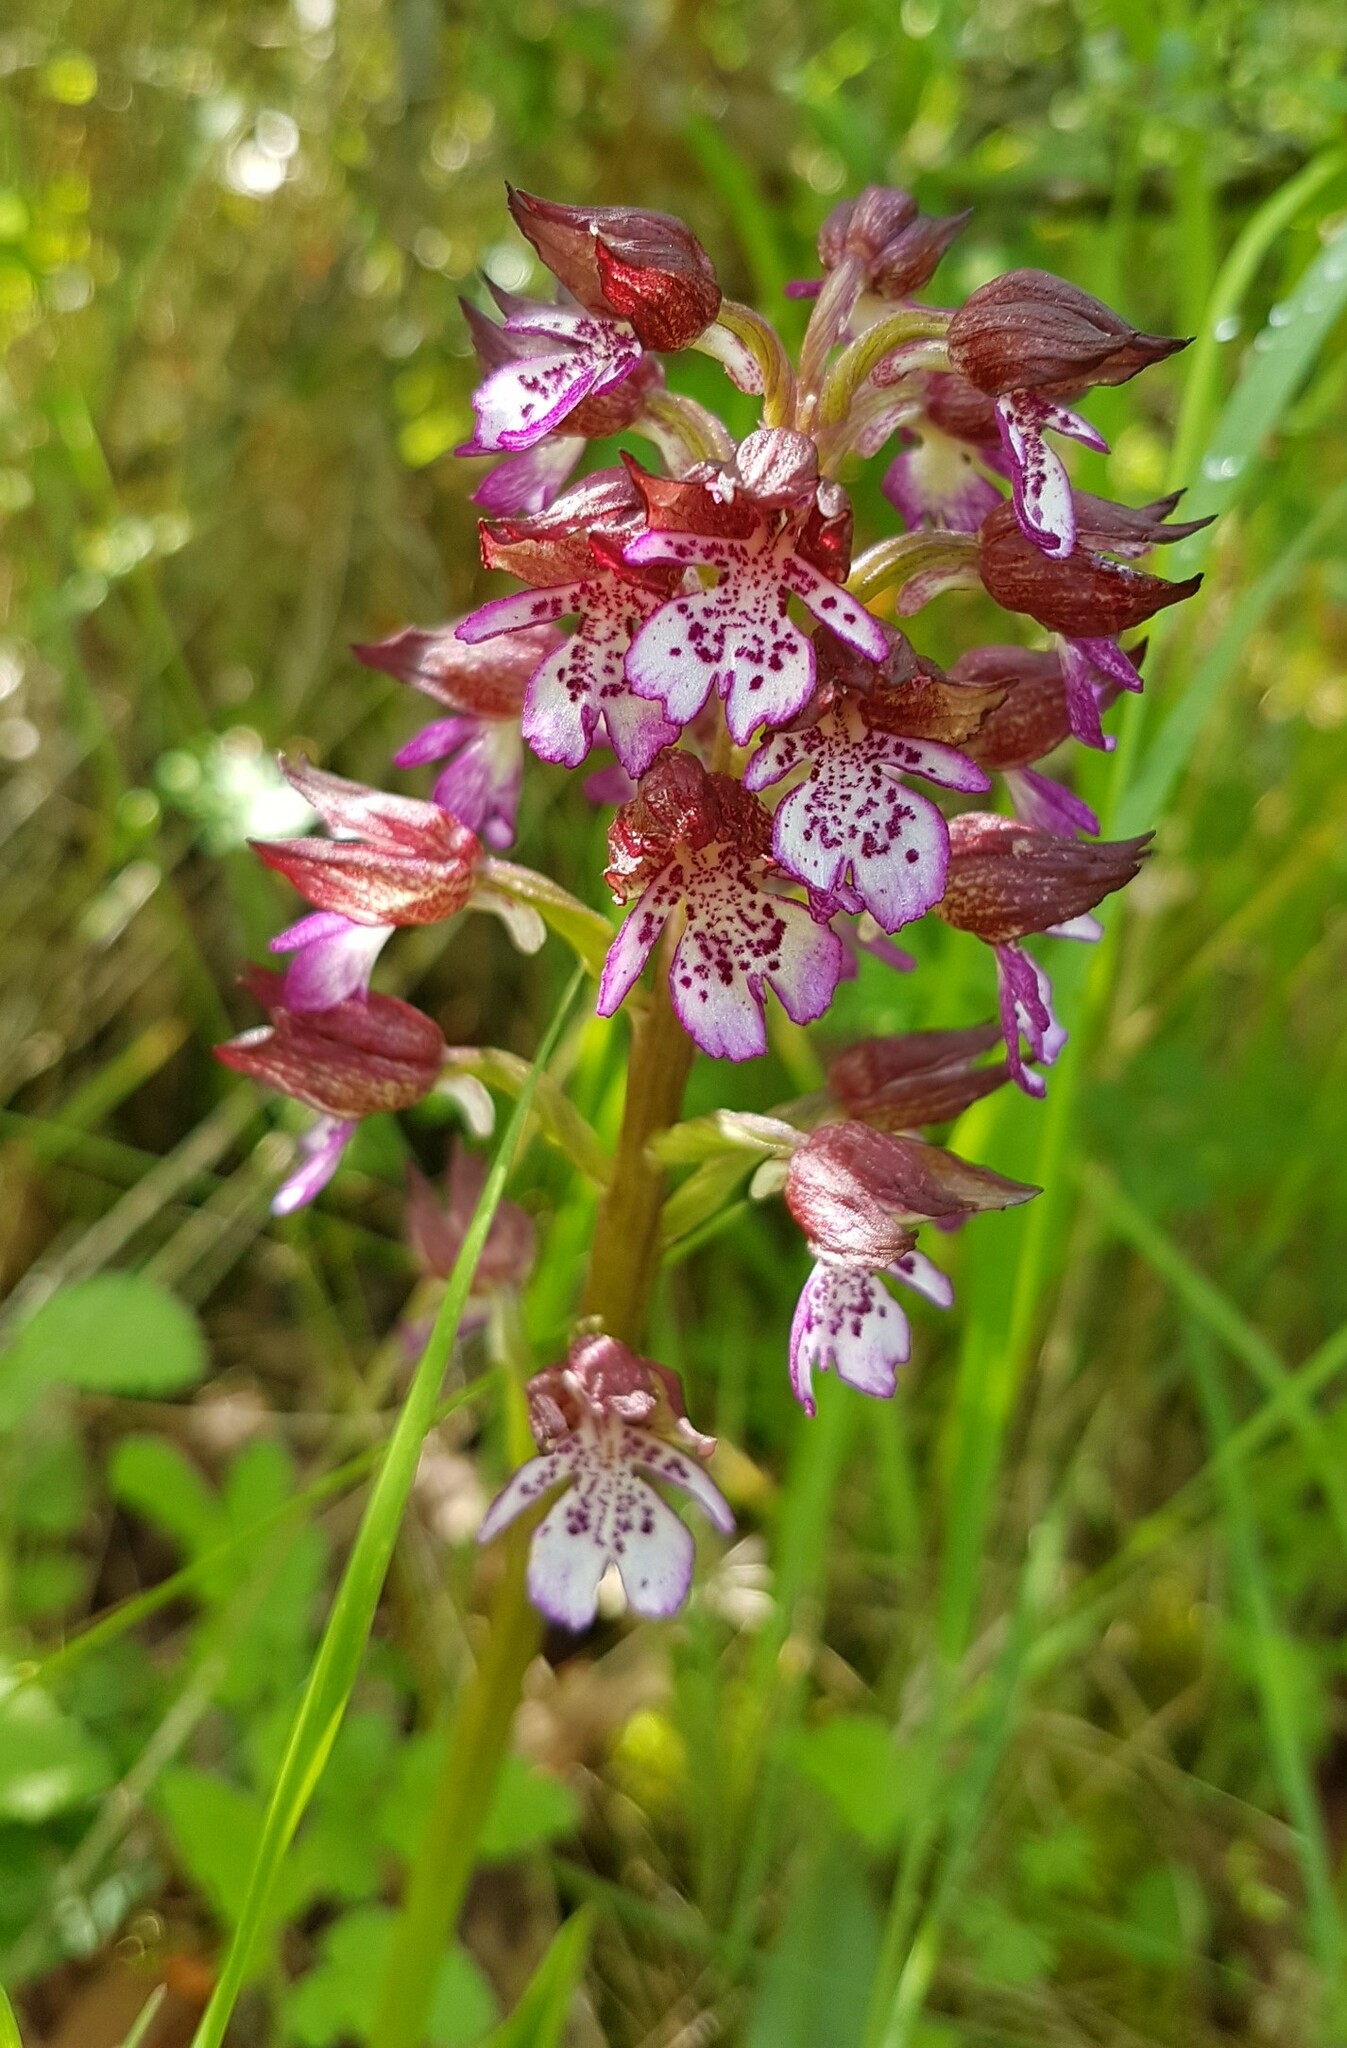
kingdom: Plantae
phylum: Tracheophyta
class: Liliopsida
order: Asparagales
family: Orchidaceae
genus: Orchis
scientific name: Orchis purpurea
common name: Lady orchid
